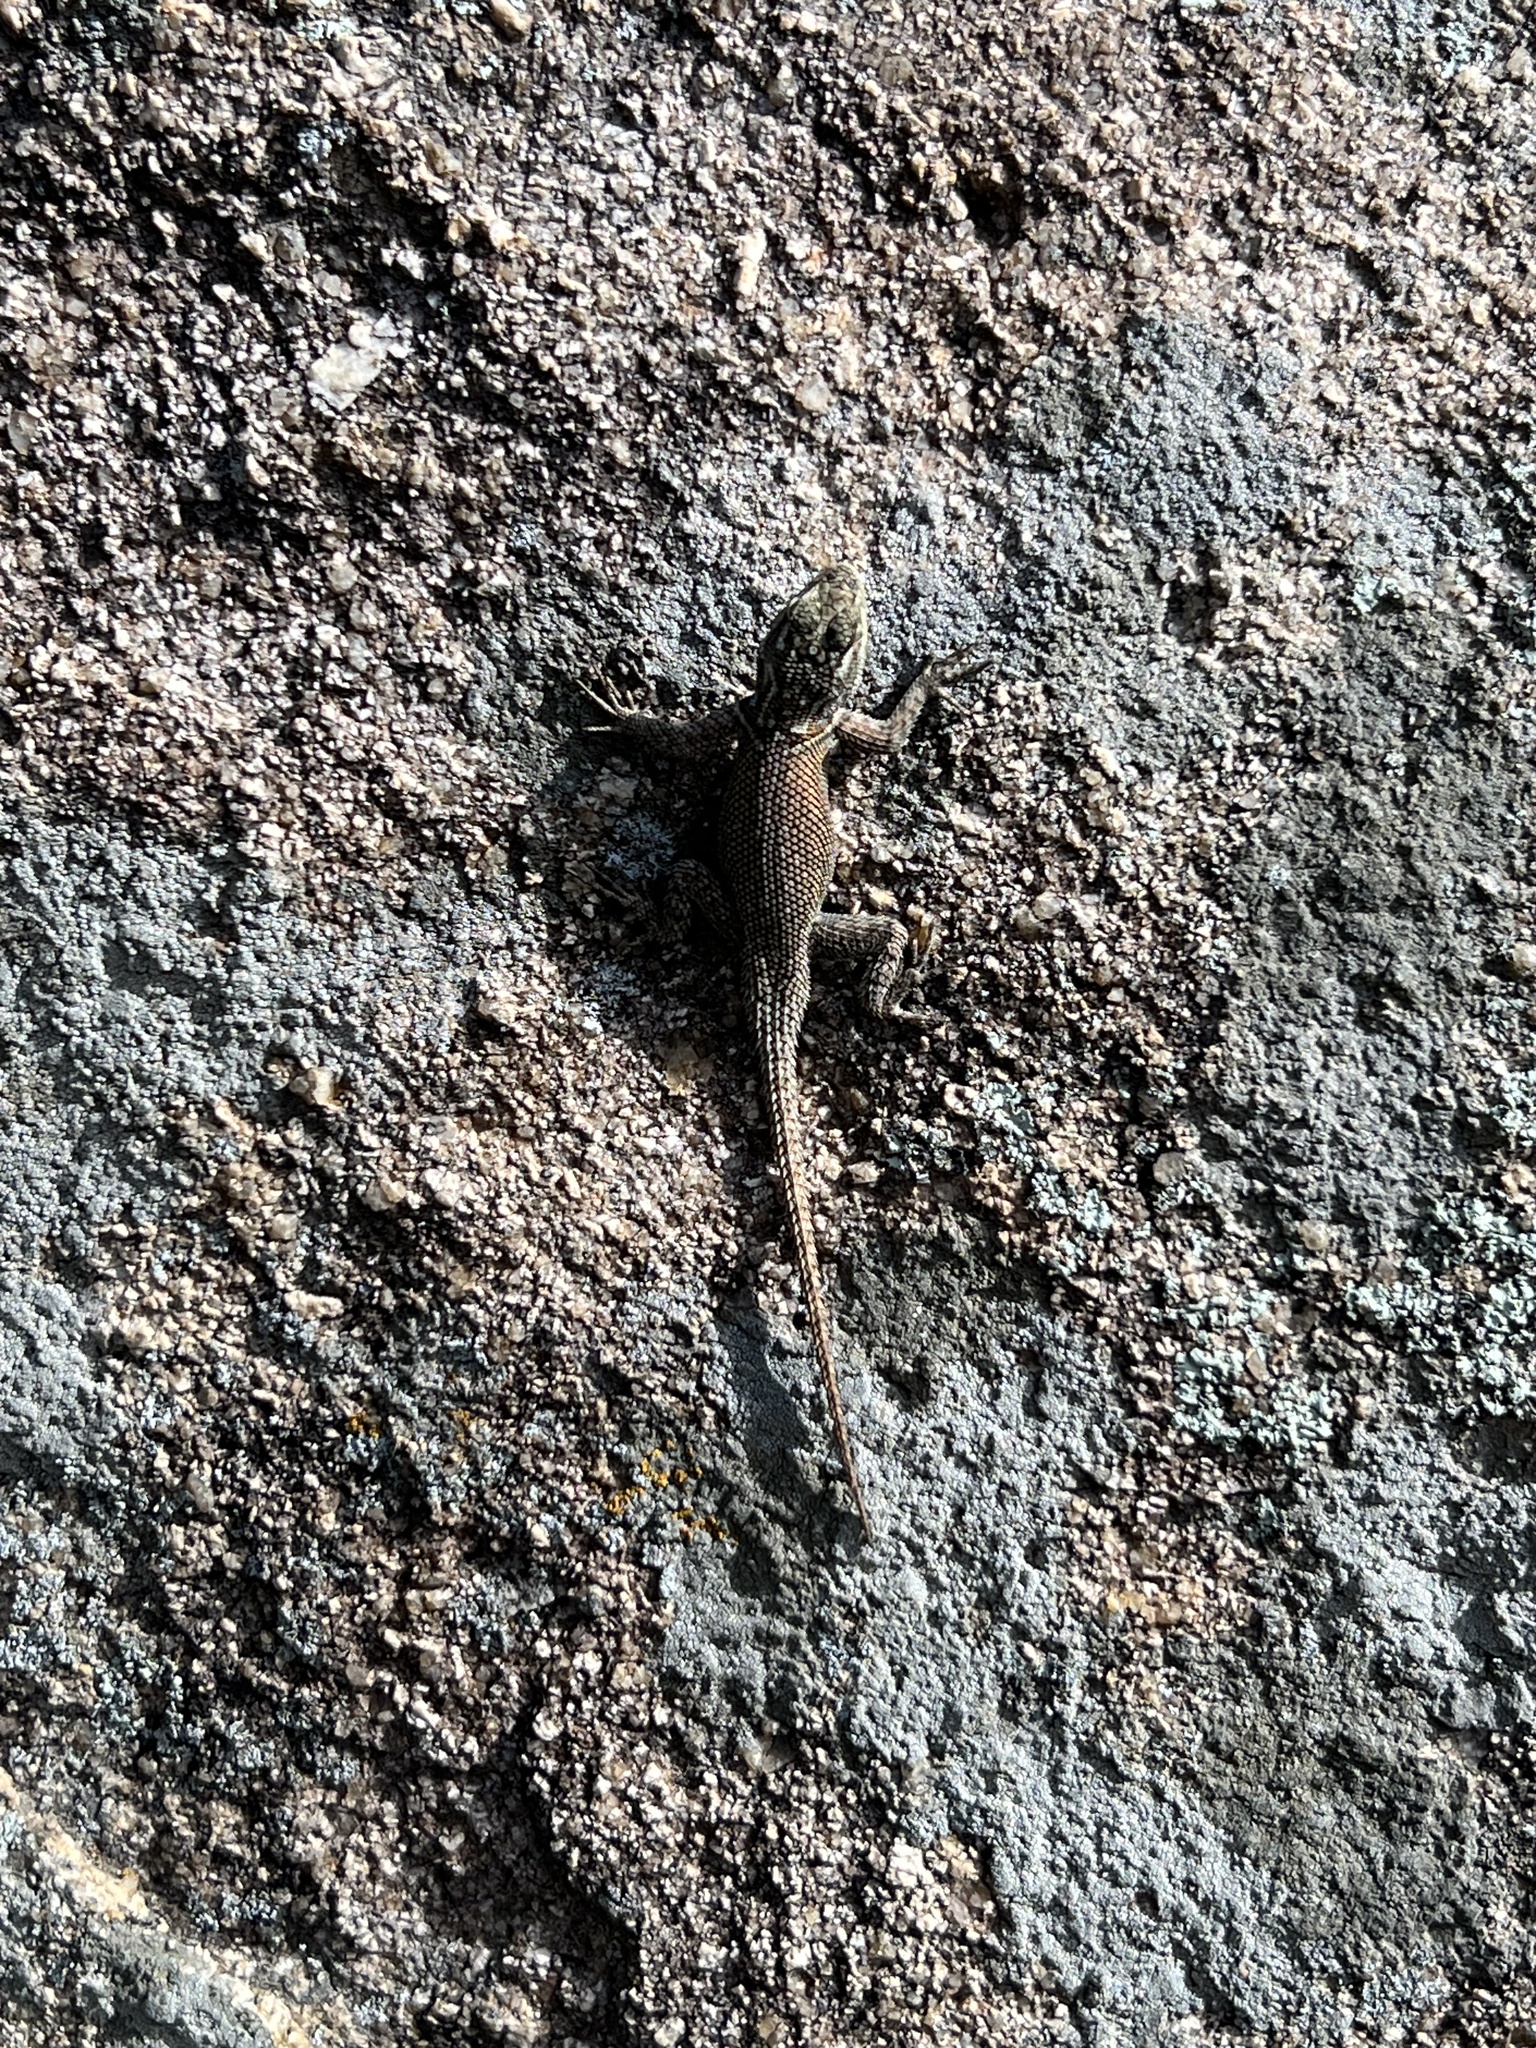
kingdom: Animalia
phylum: Chordata
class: Squamata
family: Phrynosomatidae
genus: Sceloporus
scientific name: Sceloporus jarrovii
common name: Yarrow's spiny lizard
